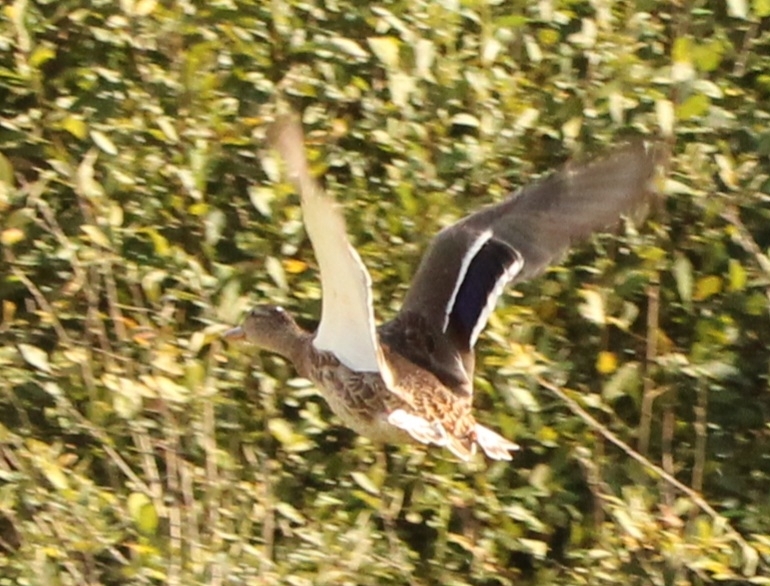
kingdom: Animalia
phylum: Chordata
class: Aves
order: Anseriformes
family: Anatidae
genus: Anas
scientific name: Anas platyrhynchos
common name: Mallard
